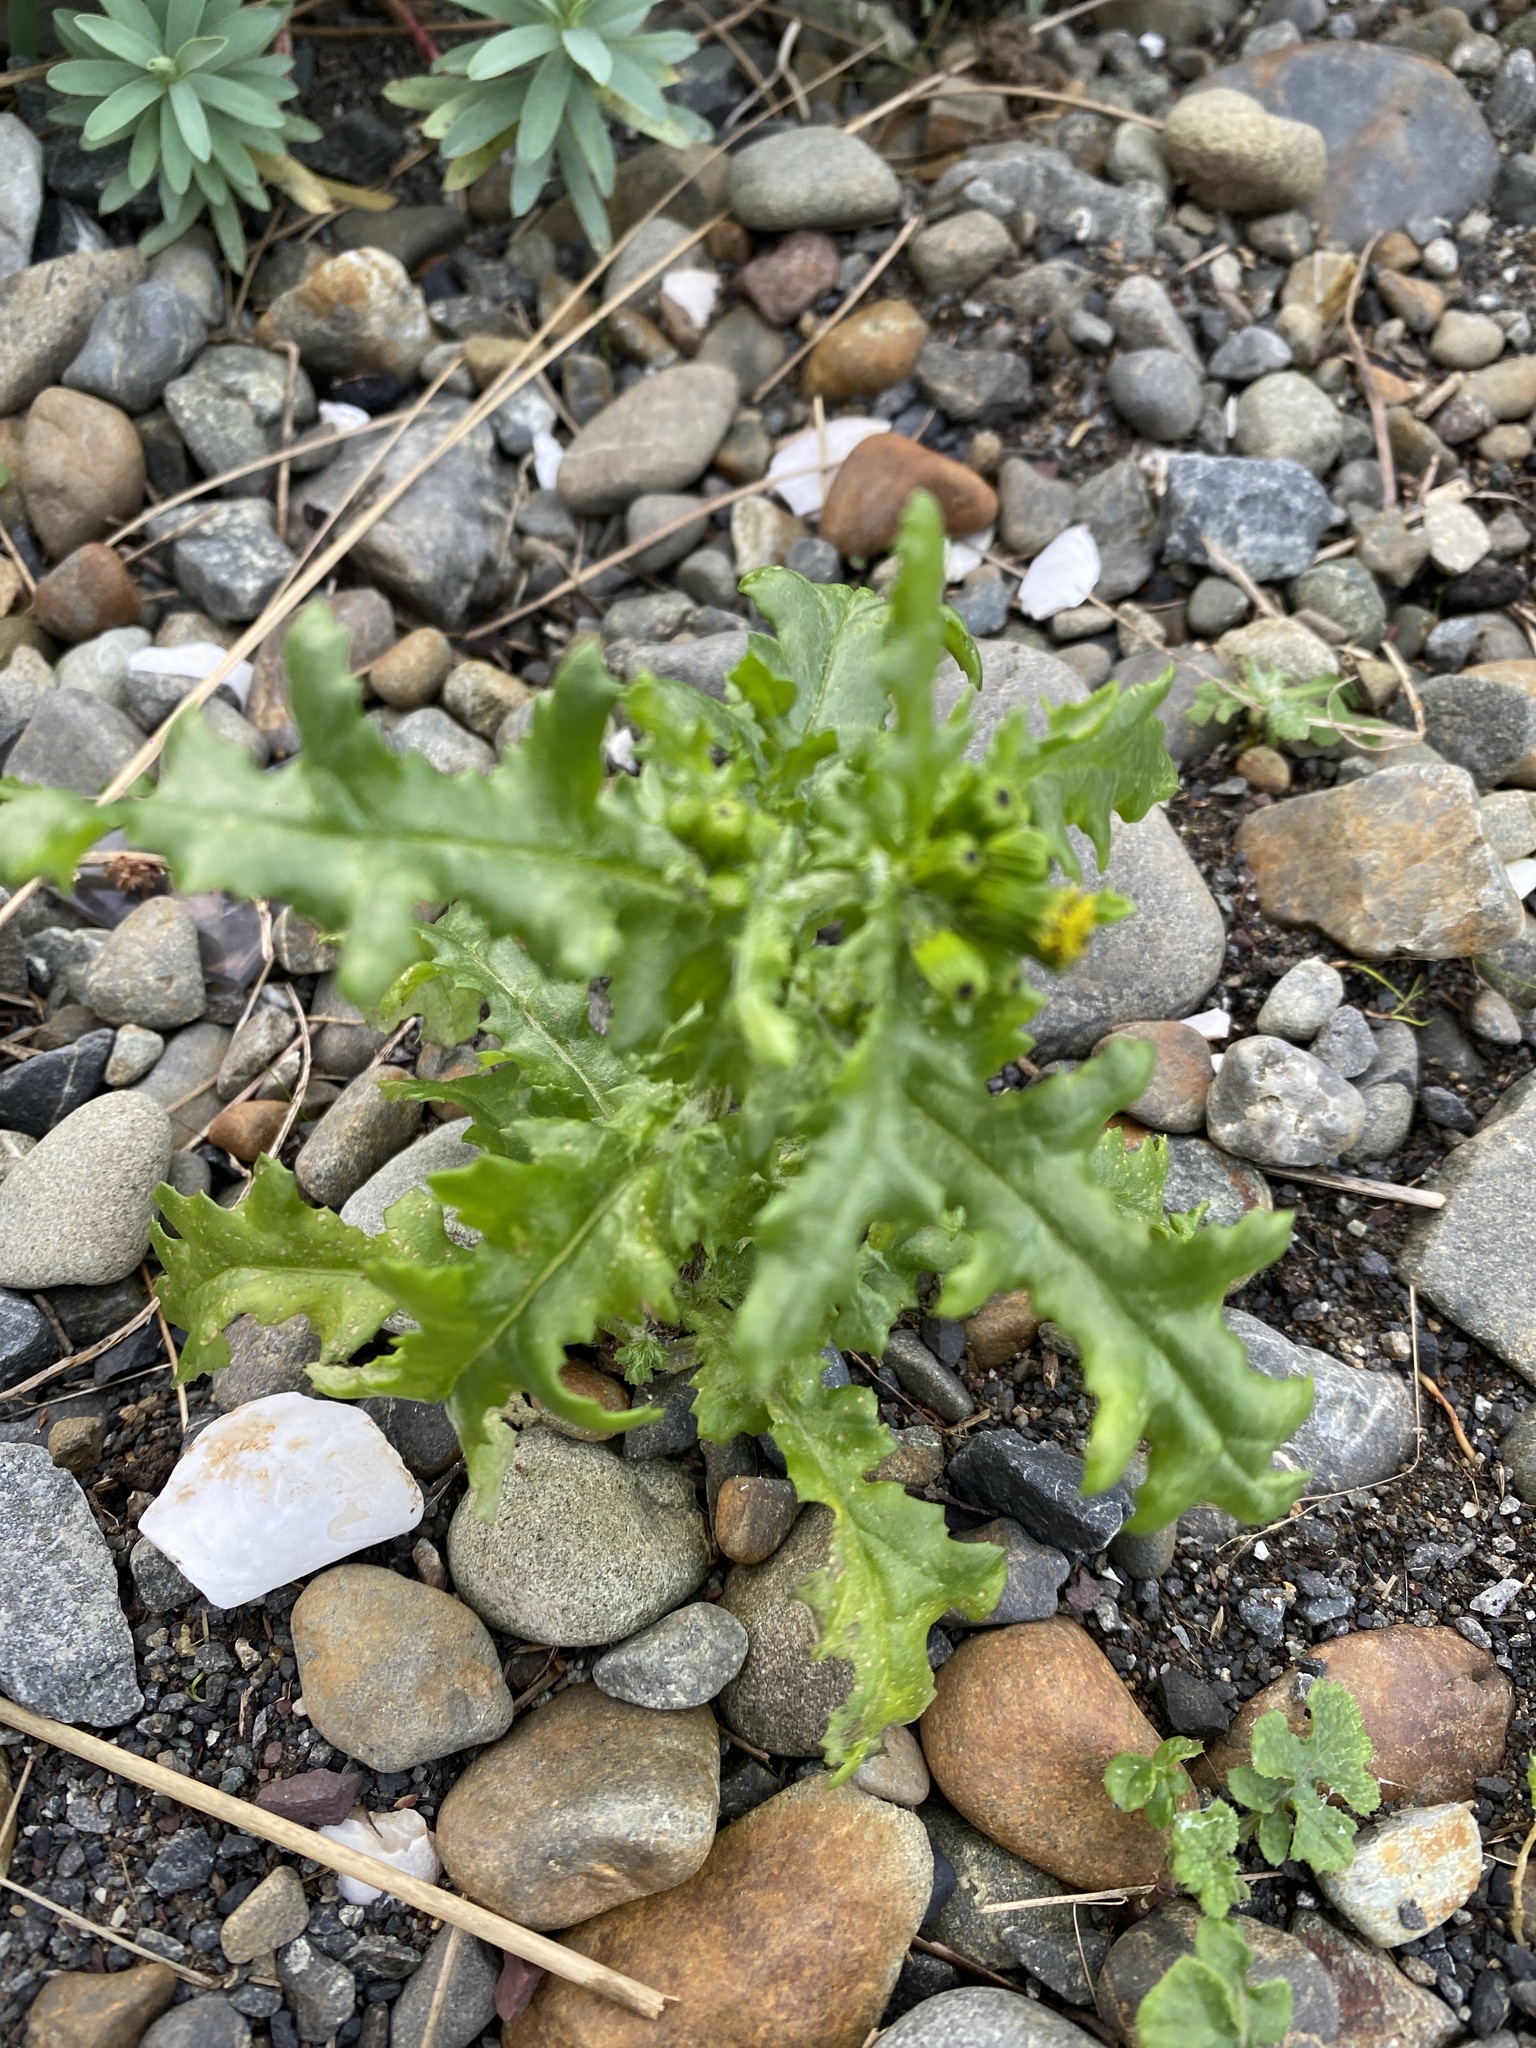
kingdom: Plantae
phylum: Tracheophyta
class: Magnoliopsida
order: Asterales
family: Asteraceae
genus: Senecio
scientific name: Senecio vulgaris
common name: Old-man-in-the-spring
